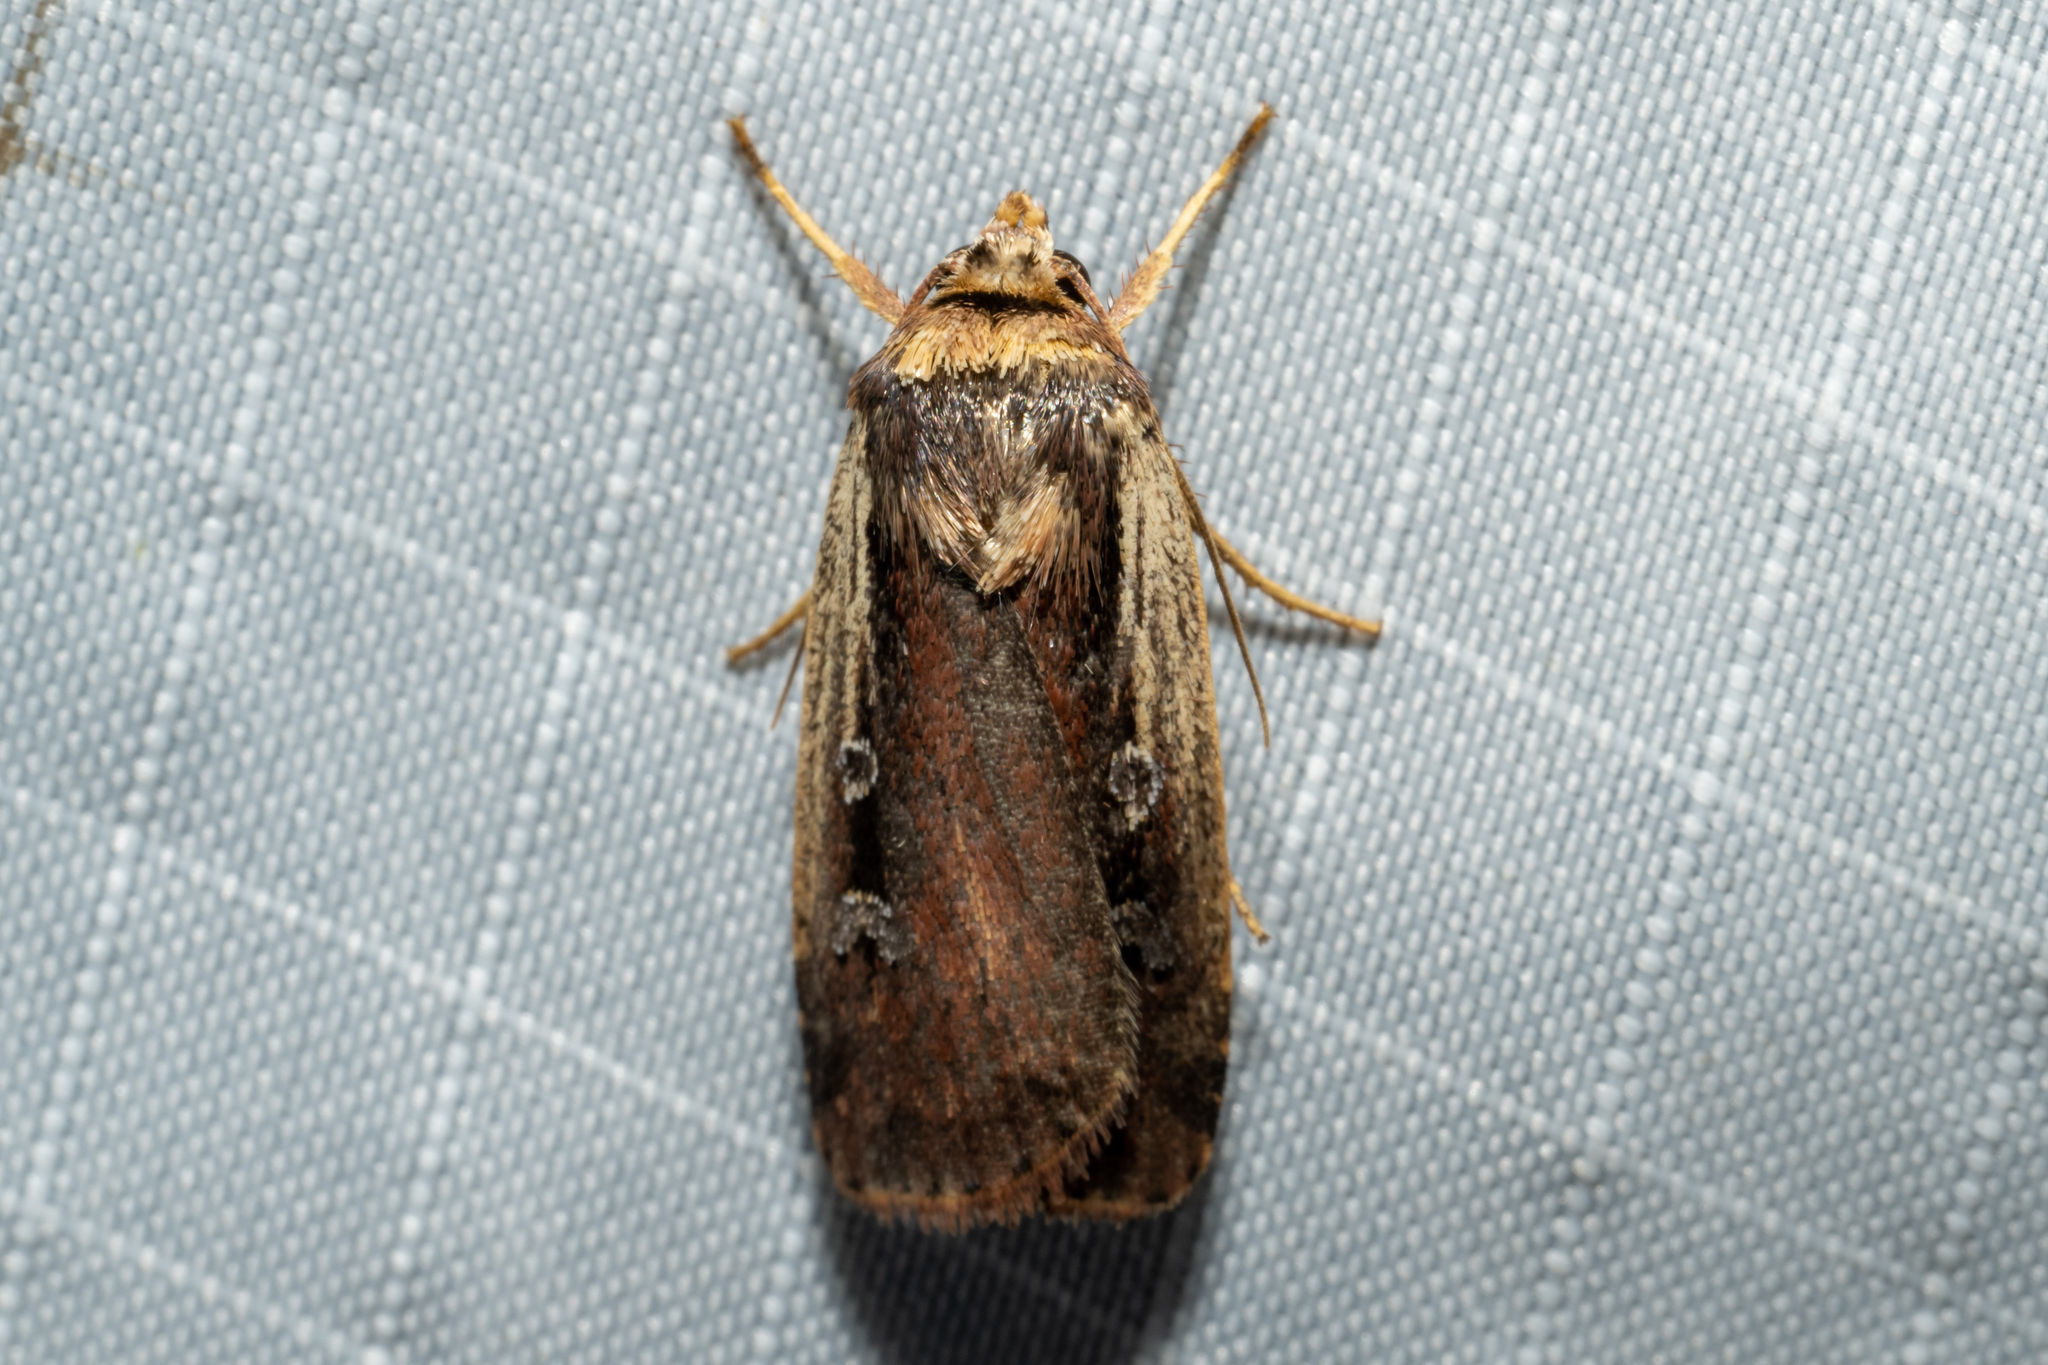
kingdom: Animalia
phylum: Arthropoda
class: Insecta
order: Lepidoptera
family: Noctuidae
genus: Ochropleura
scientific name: Ochropleura implecta
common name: Flame-shouldered dart
